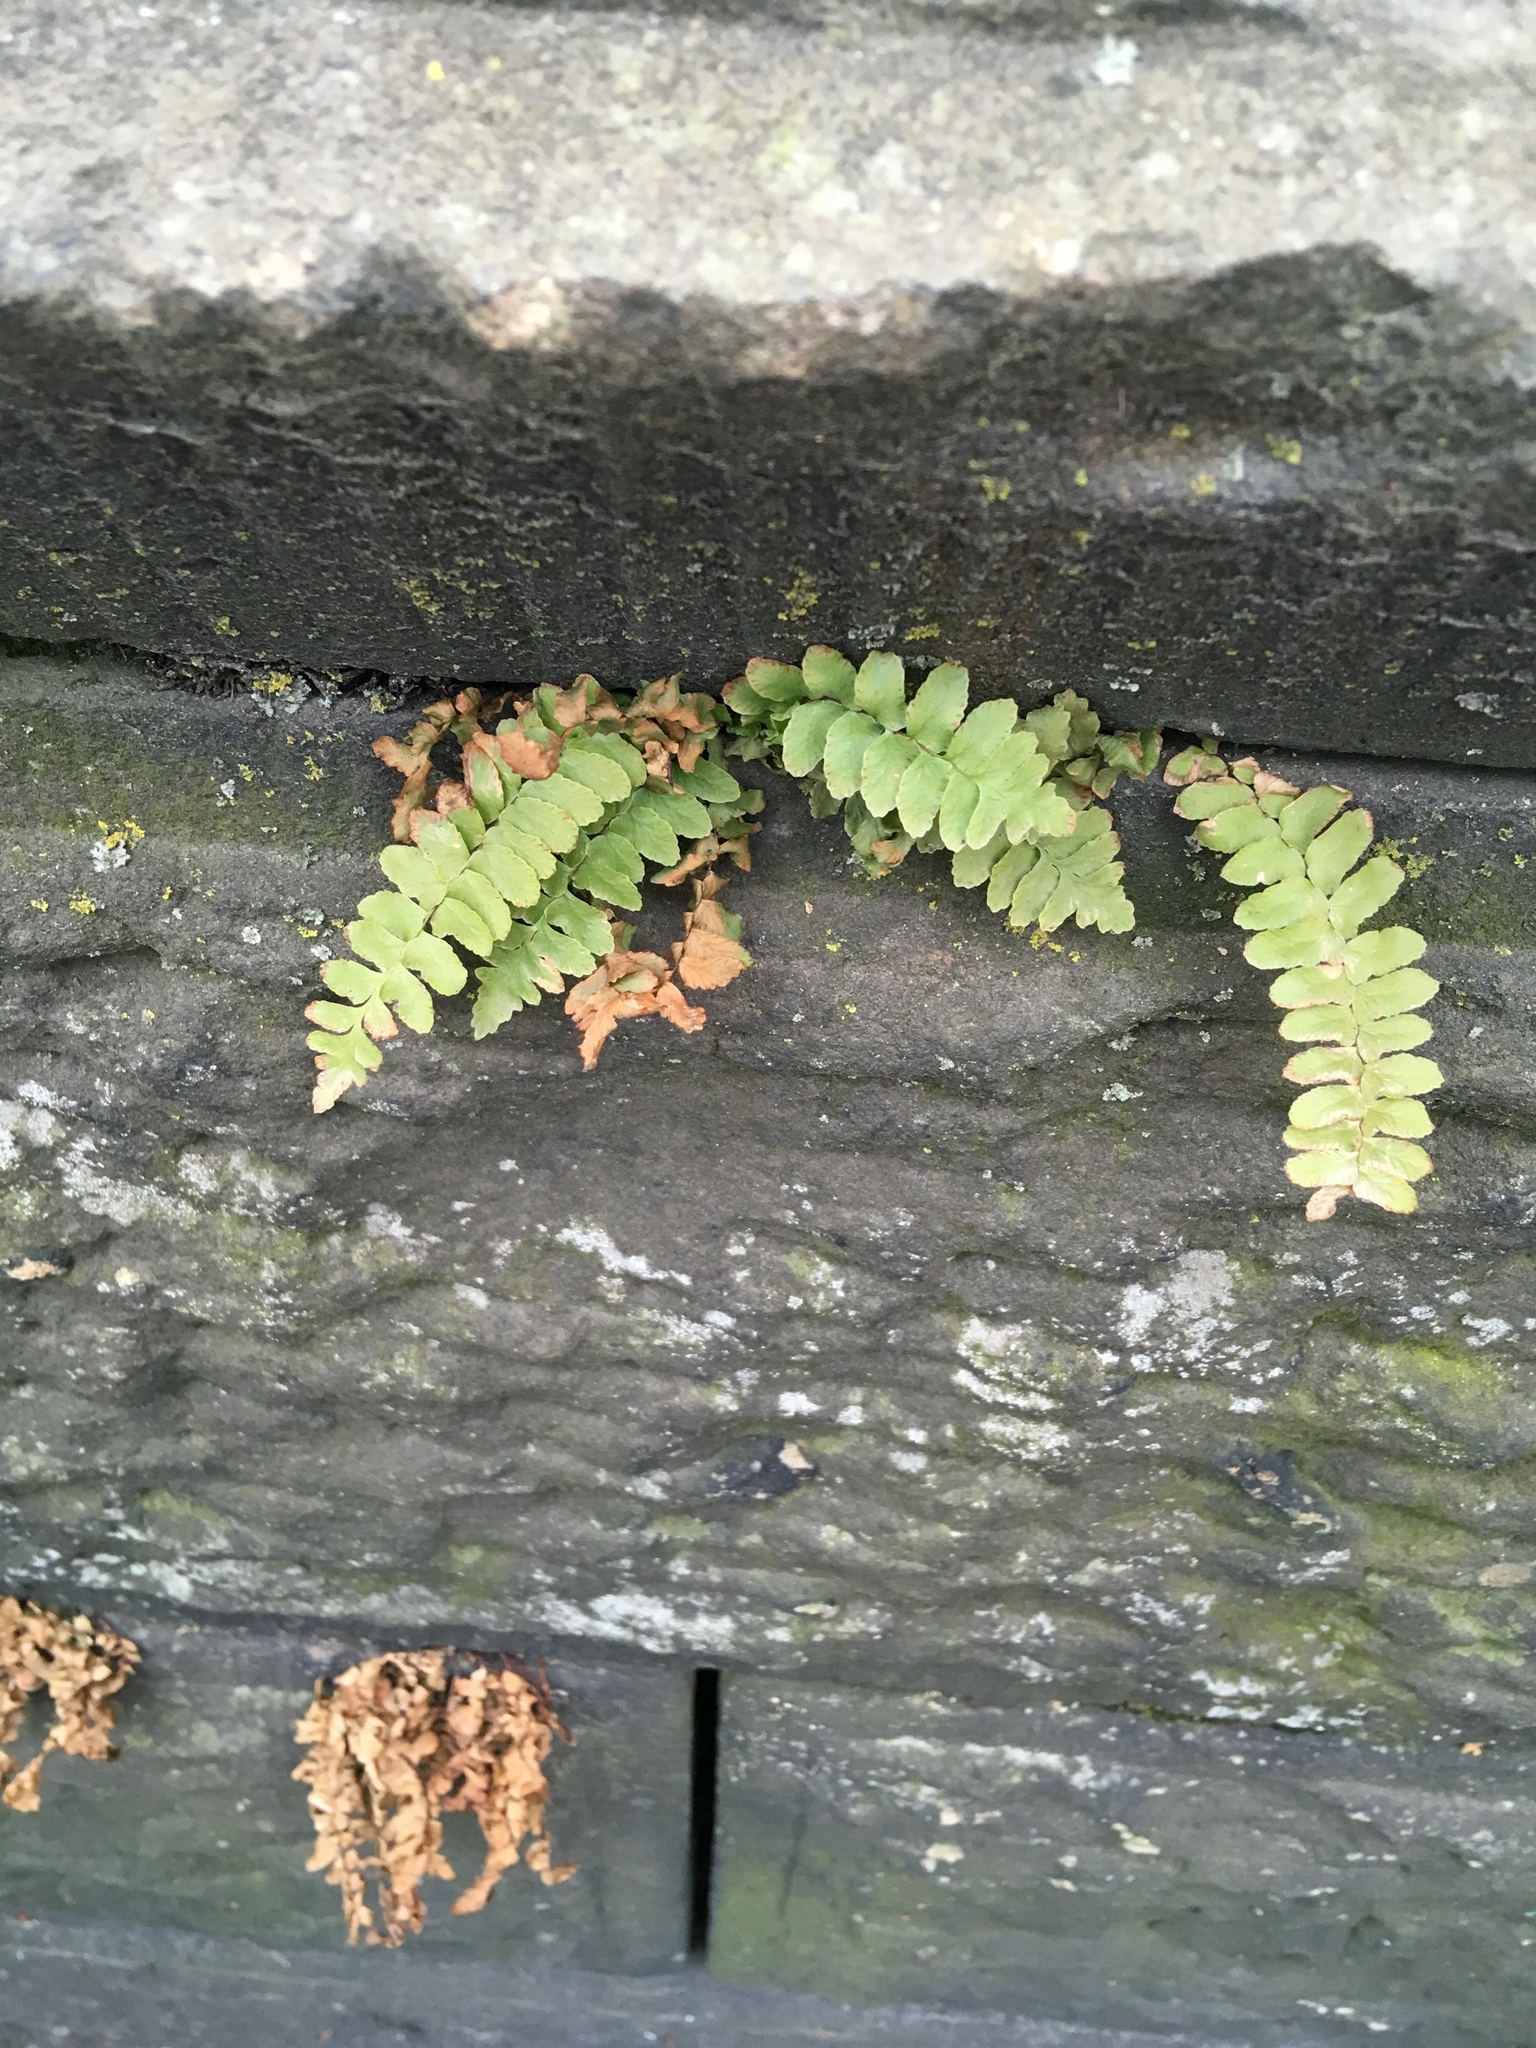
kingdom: Plantae
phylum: Tracheophyta
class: Polypodiopsida
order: Polypodiales
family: Aspleniaceae
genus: Asplenium
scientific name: Asplenium platyneuron
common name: Ebony spleenwort
